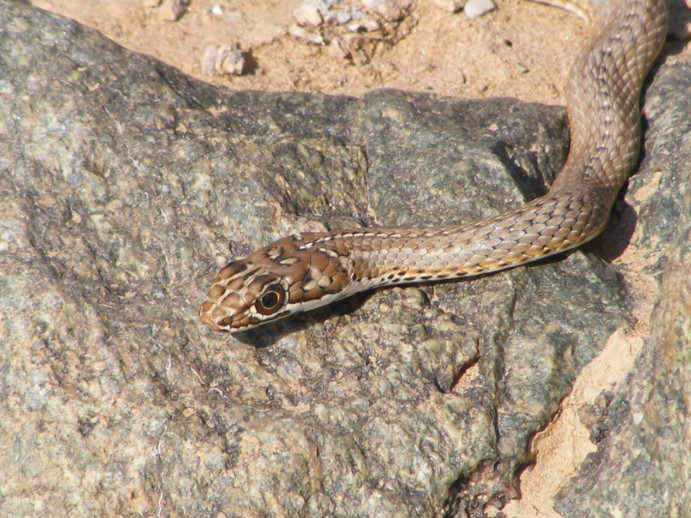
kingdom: Animalia
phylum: Chordata
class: Squamata
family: Psammophiidae
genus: Psammophis
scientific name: Psammophis notostictus
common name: Karoo sand snake
